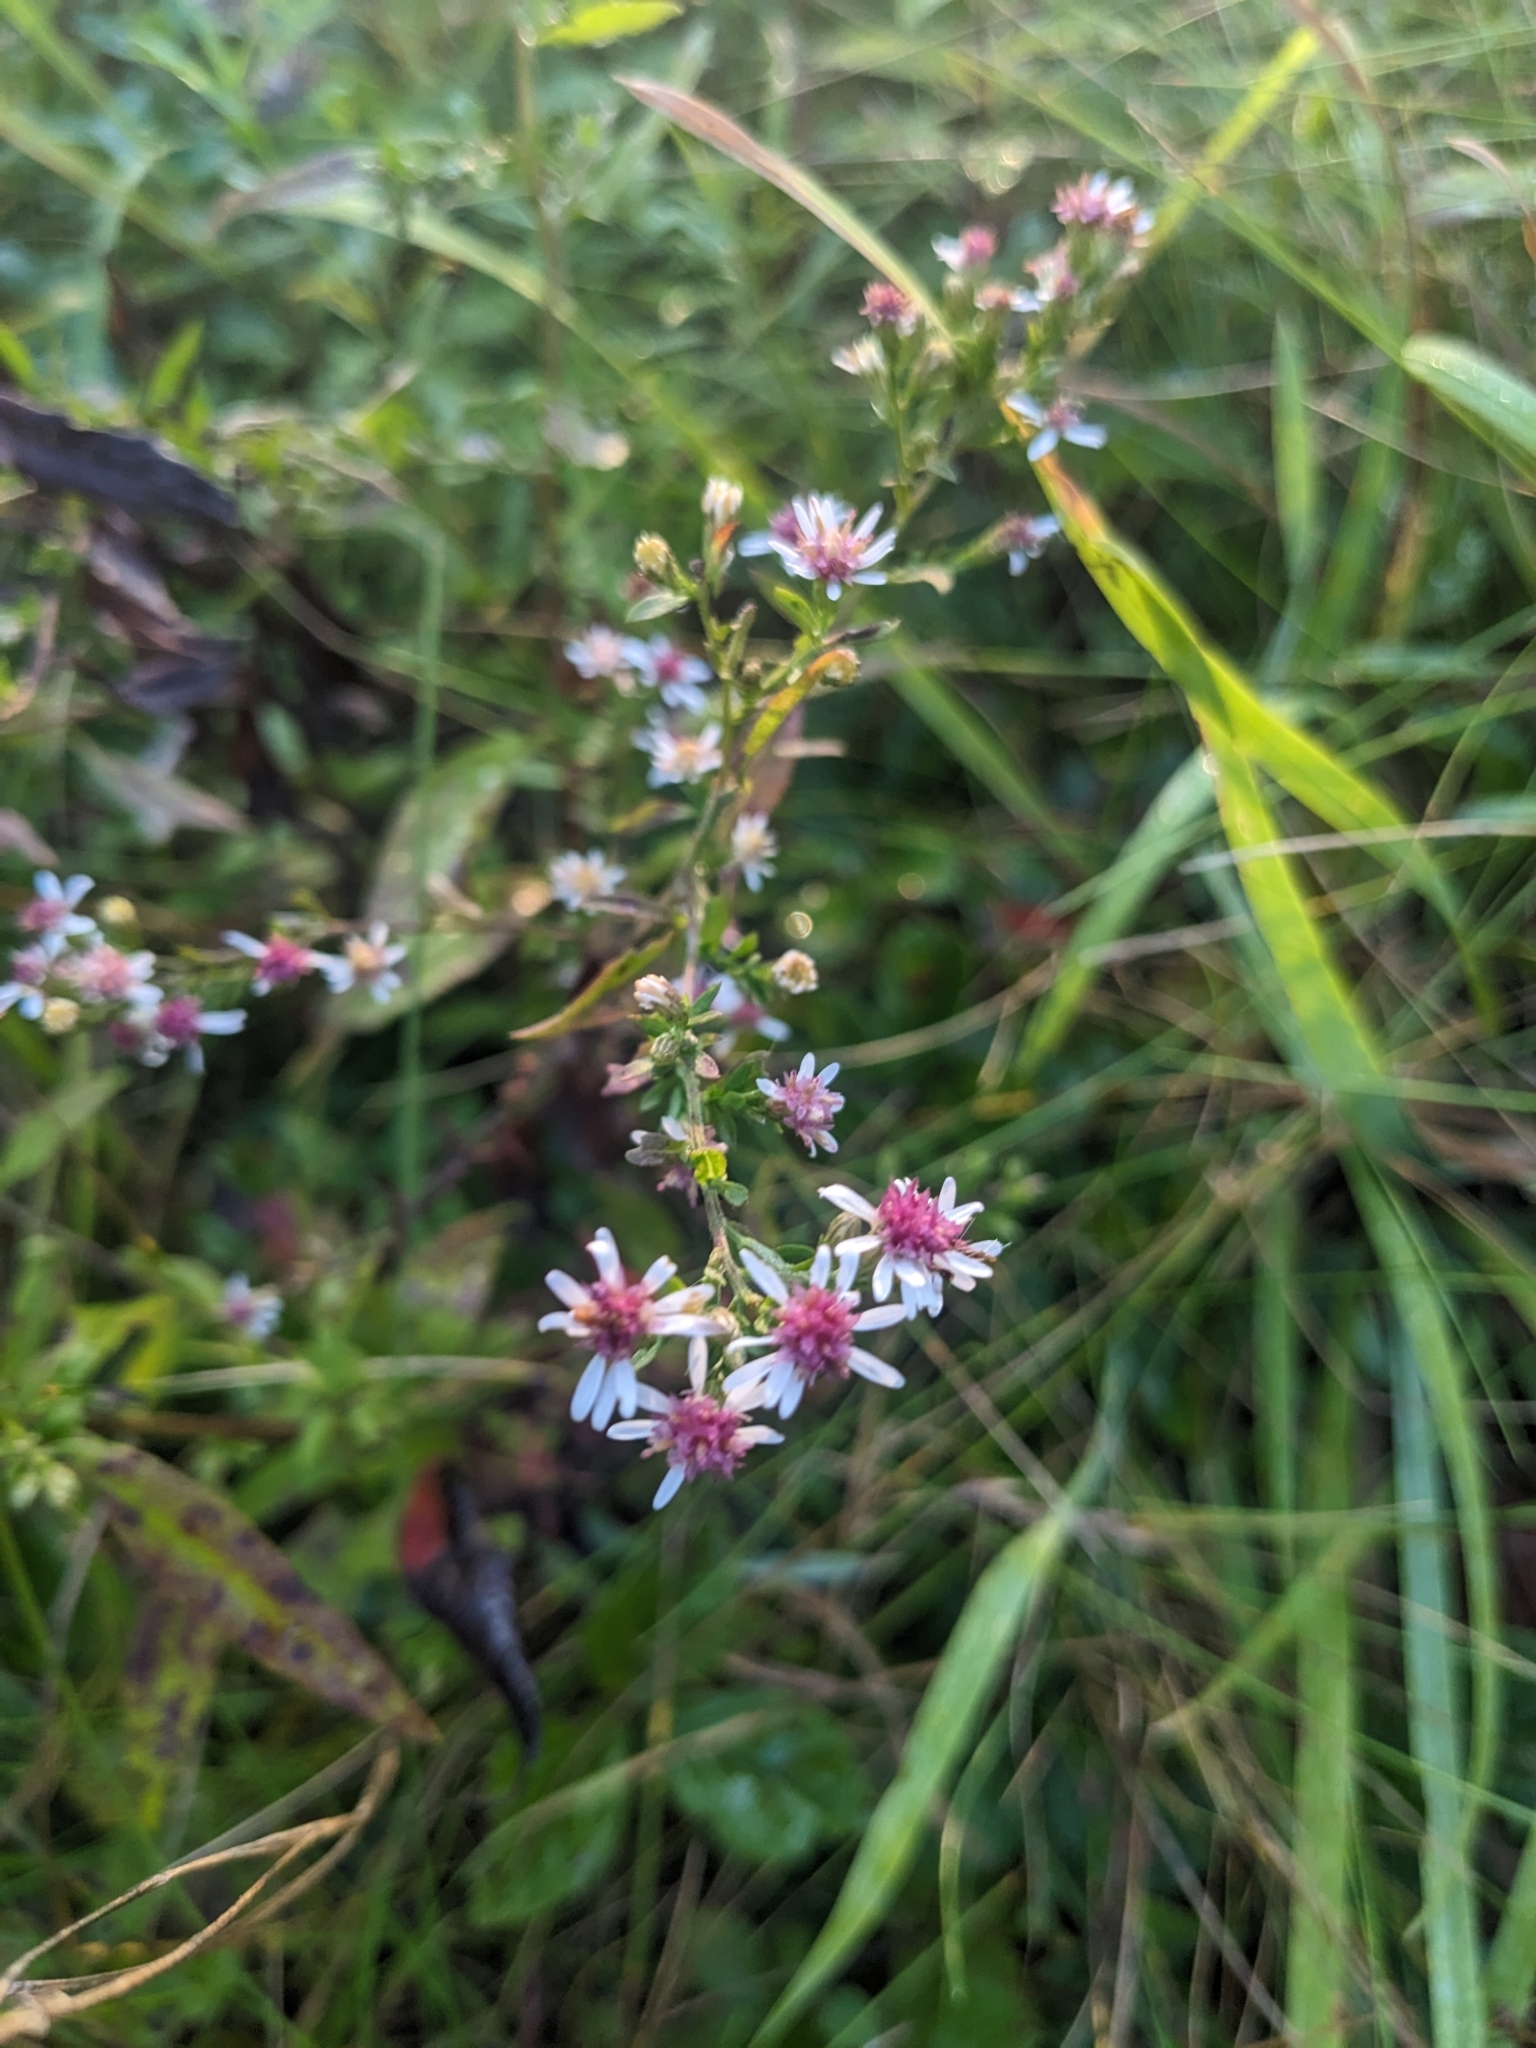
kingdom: Plantae
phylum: Tracheophyta
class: Magnoliopsida
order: Asterales
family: Asteraceae
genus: Symphyotrichum
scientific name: Symphyotrichum lateriflorum
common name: Calico aster
